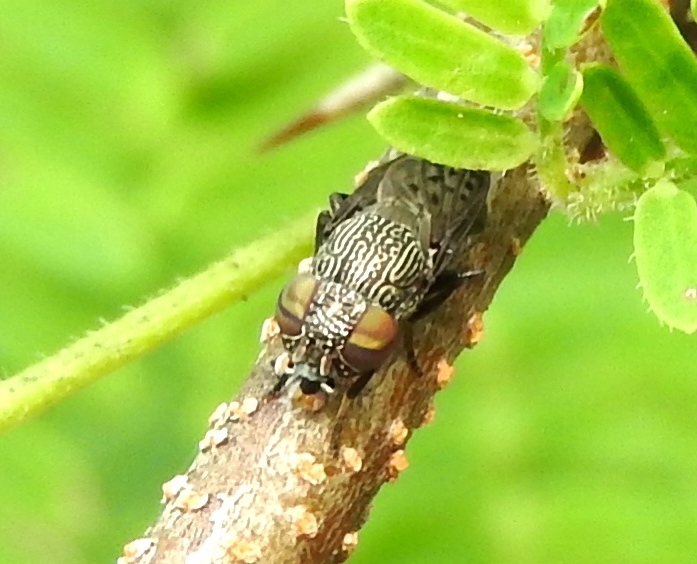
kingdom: Animalia
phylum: Arthropoda
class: Insecta
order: Diptera
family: Ulidiidae
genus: Notogramma
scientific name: Notogramma
